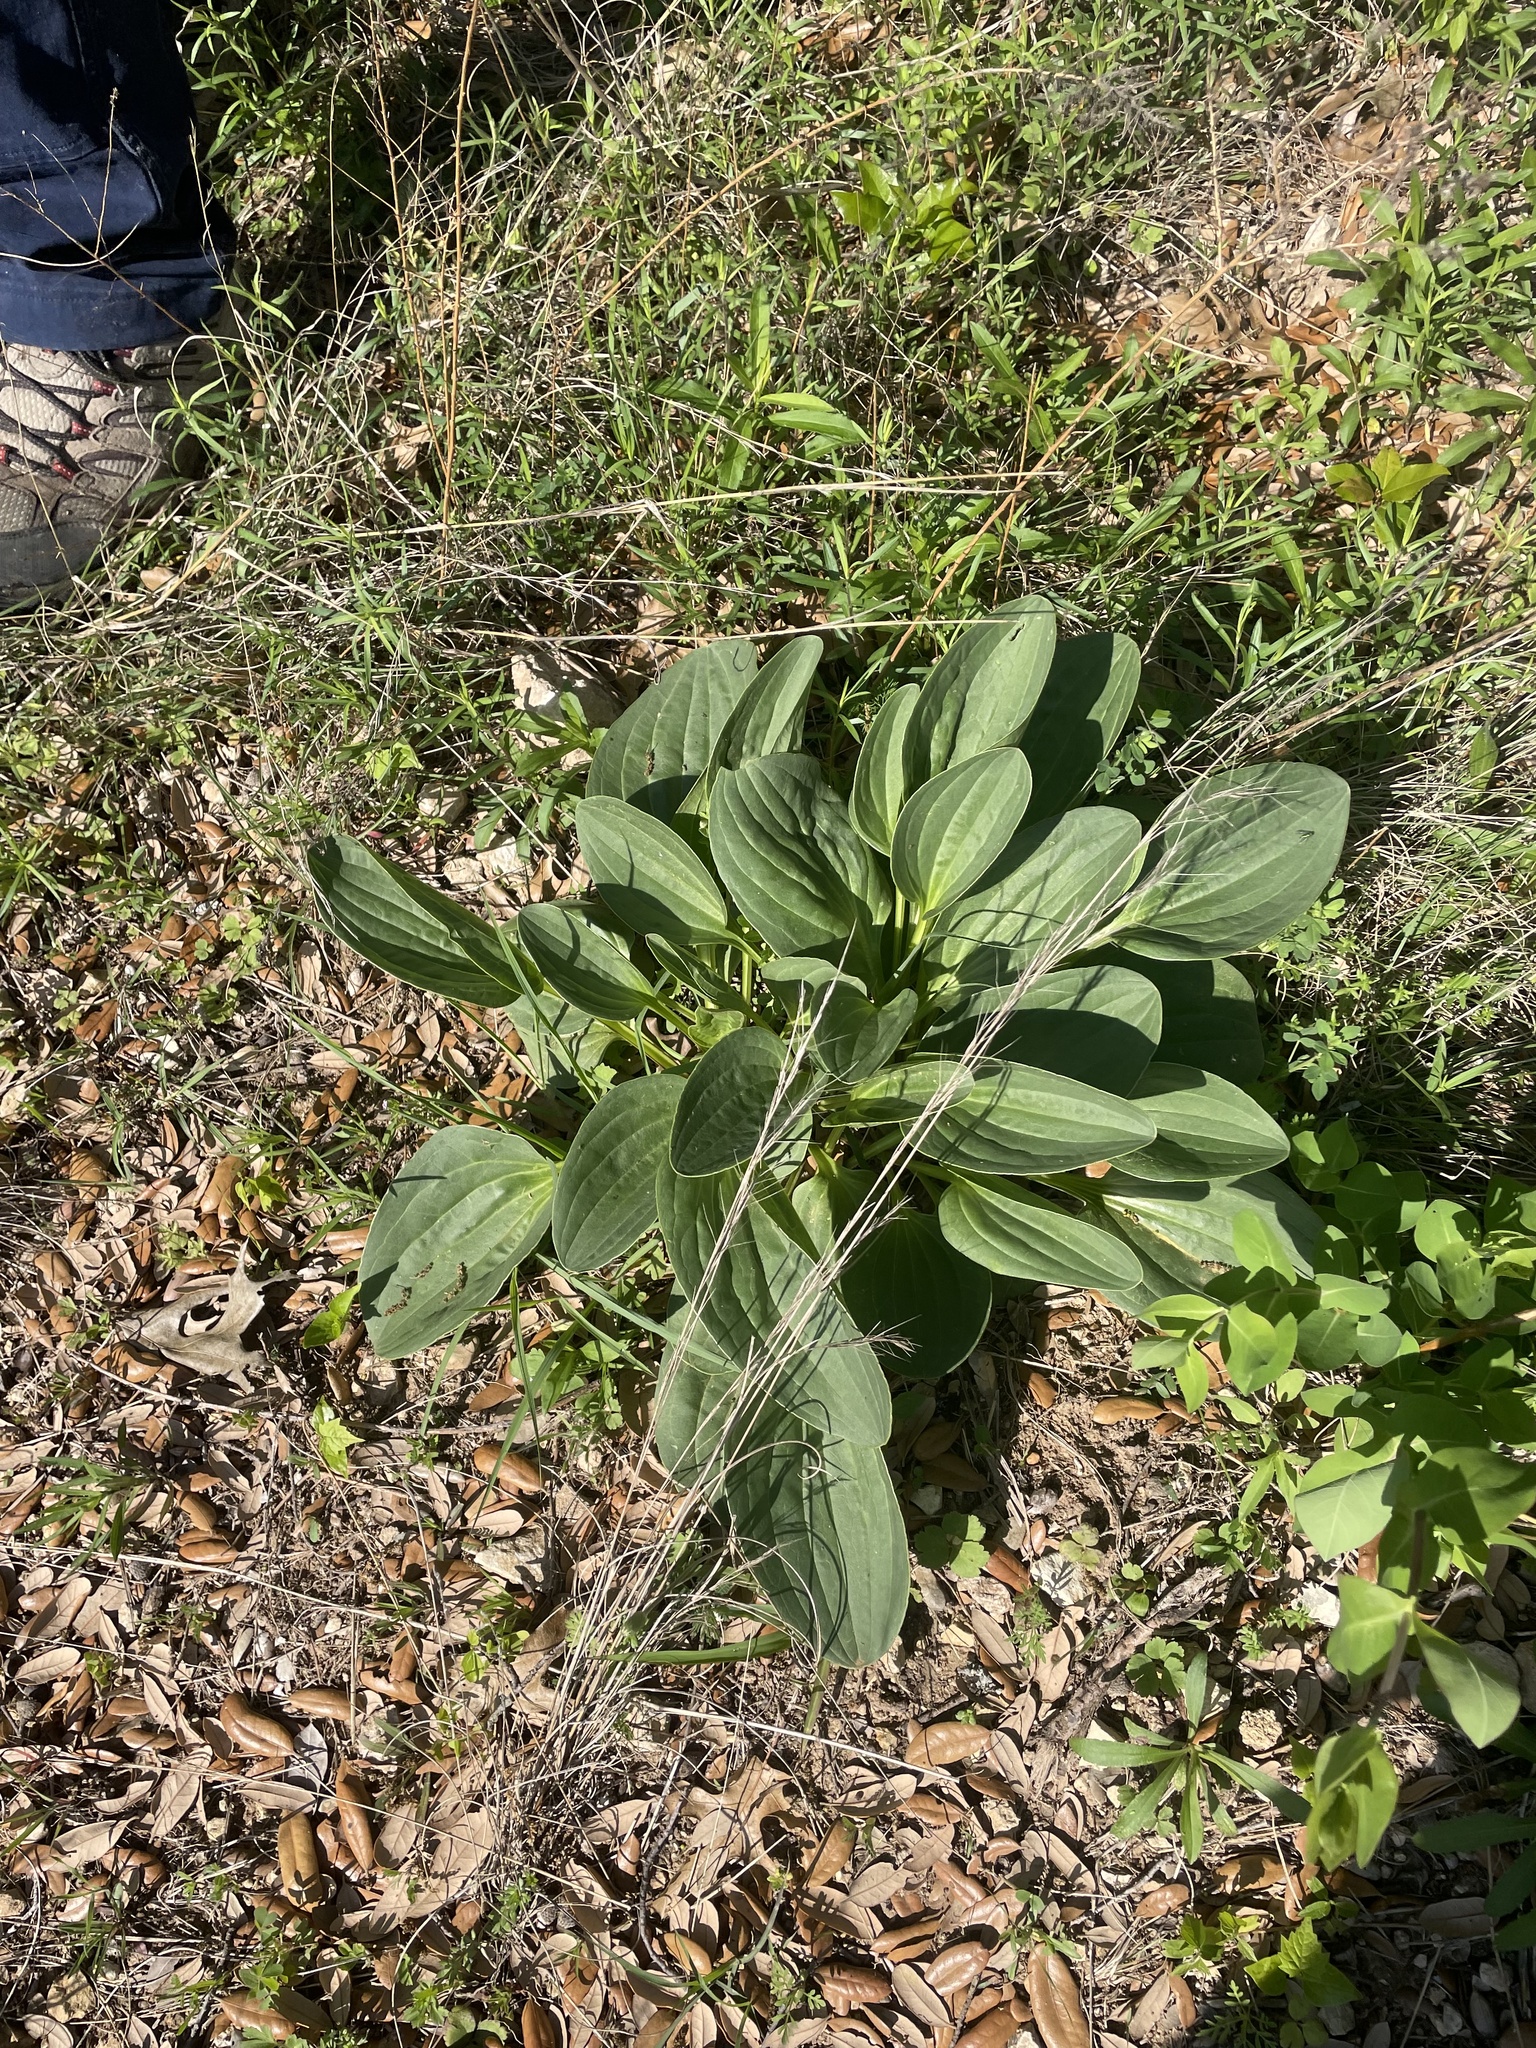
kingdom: Plantae
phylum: Tracheophyta
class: Magnoliopsida
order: Asterales
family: Asteraceae
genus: Arnoglossum
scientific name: Arnoglossum plantagineum
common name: Groove-stemmed indian-plantain
